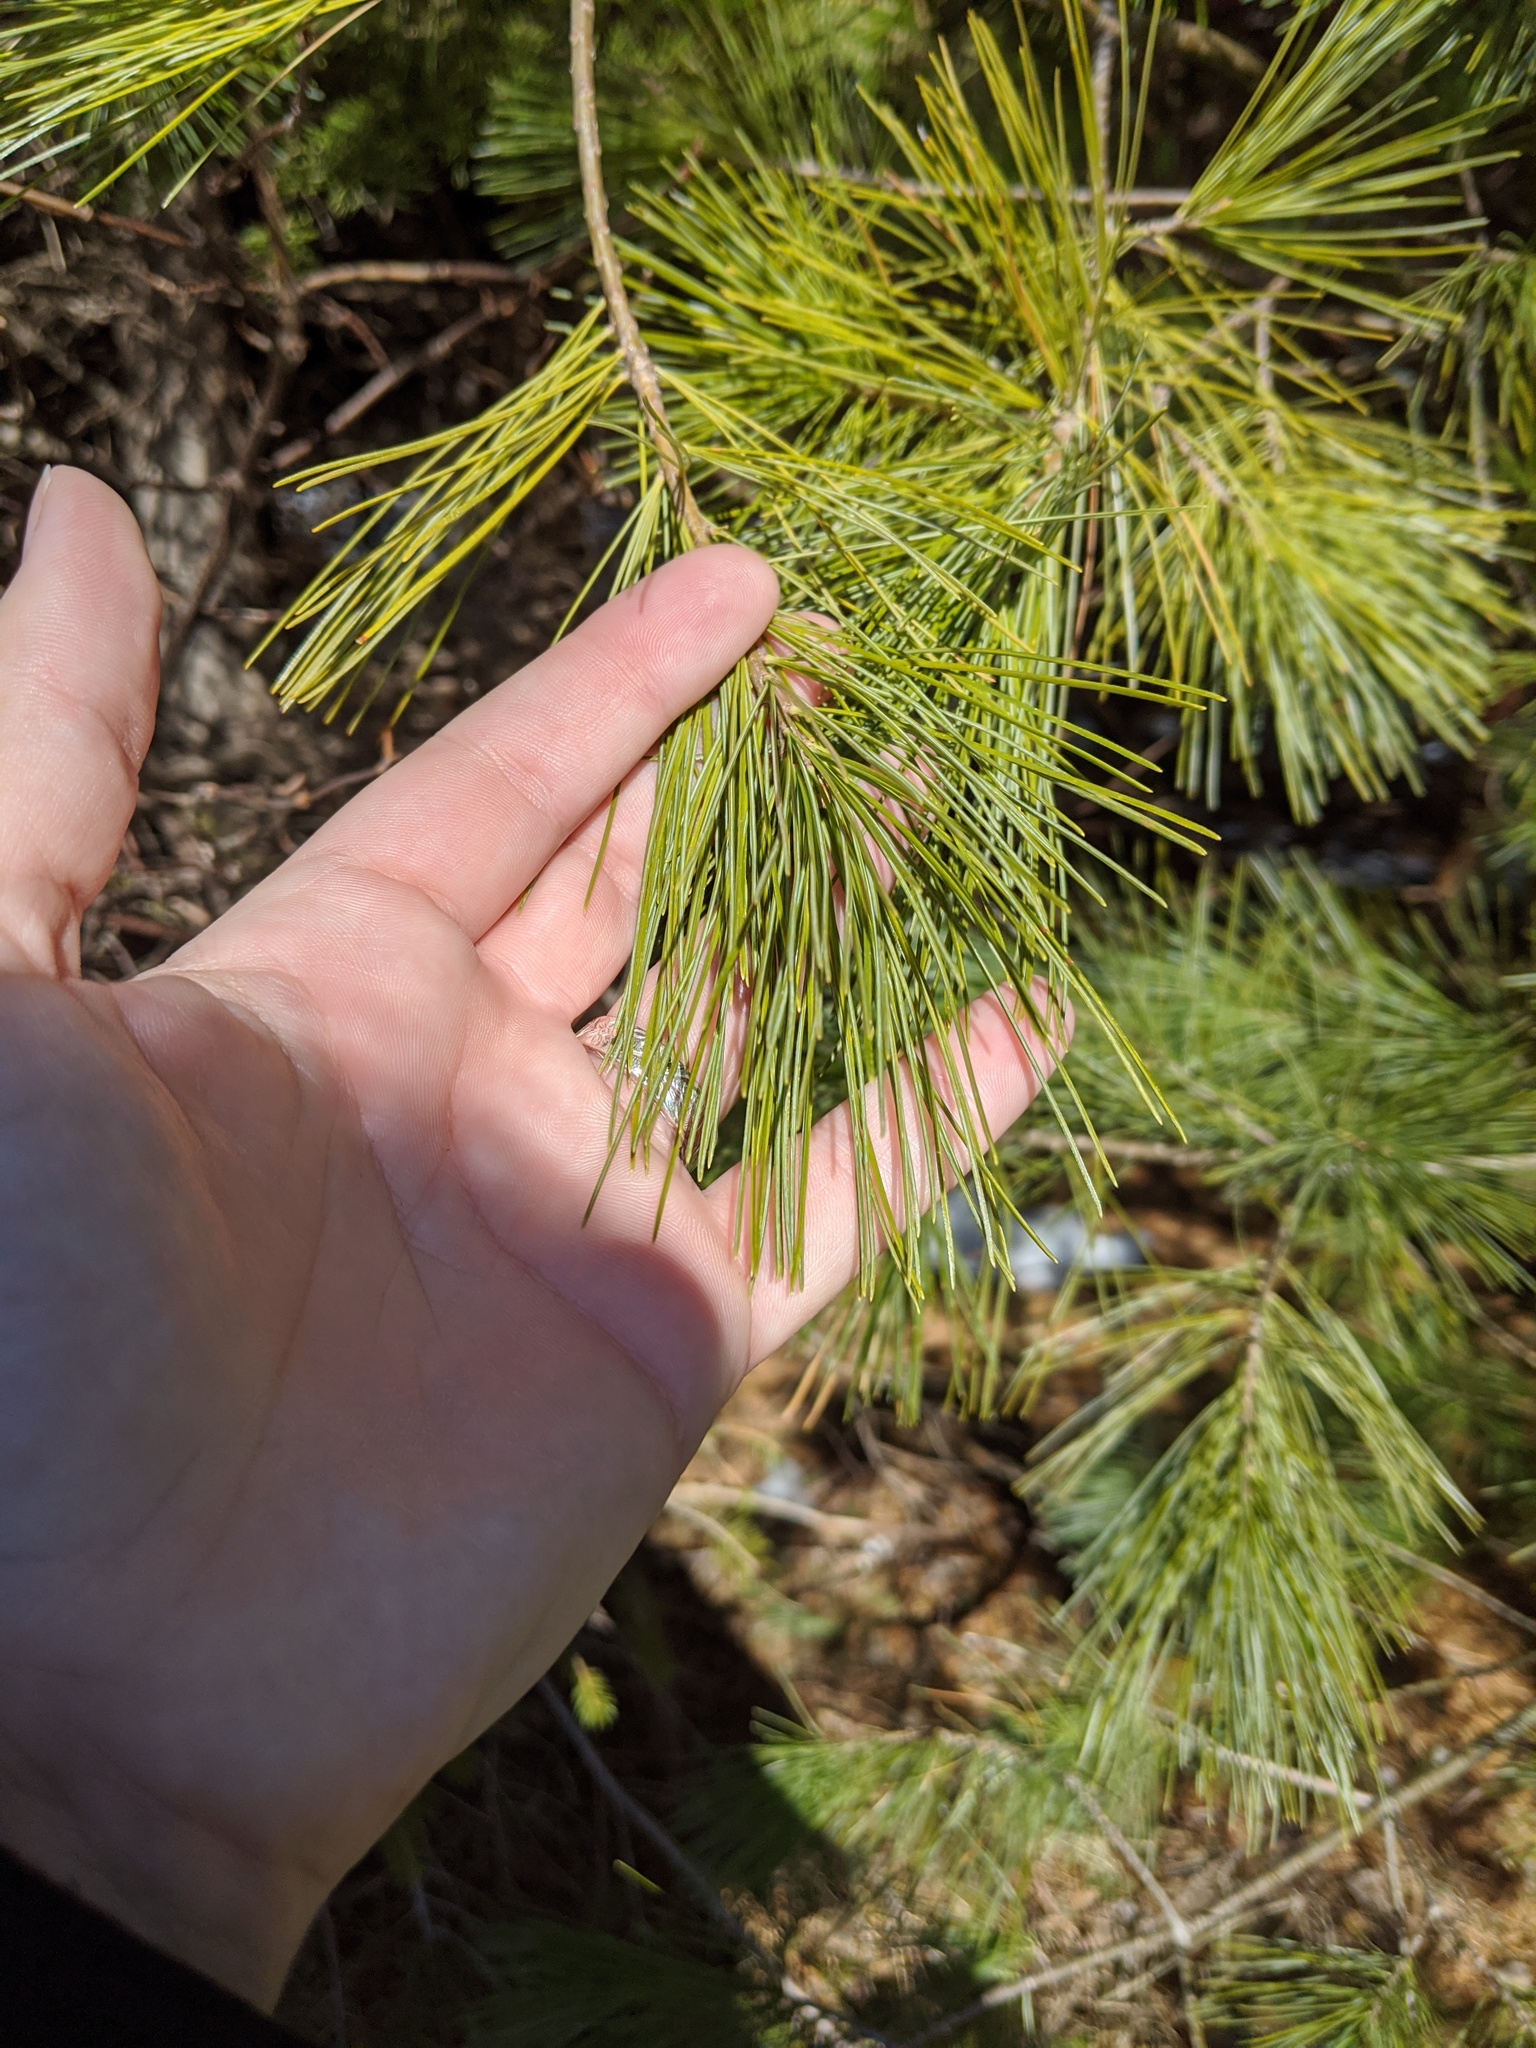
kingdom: Plantae
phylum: Tracheophyta
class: Pinopsida
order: Pinales
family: Pinaceae
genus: Pinus
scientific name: Pinus strobus
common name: Weymouth pine
